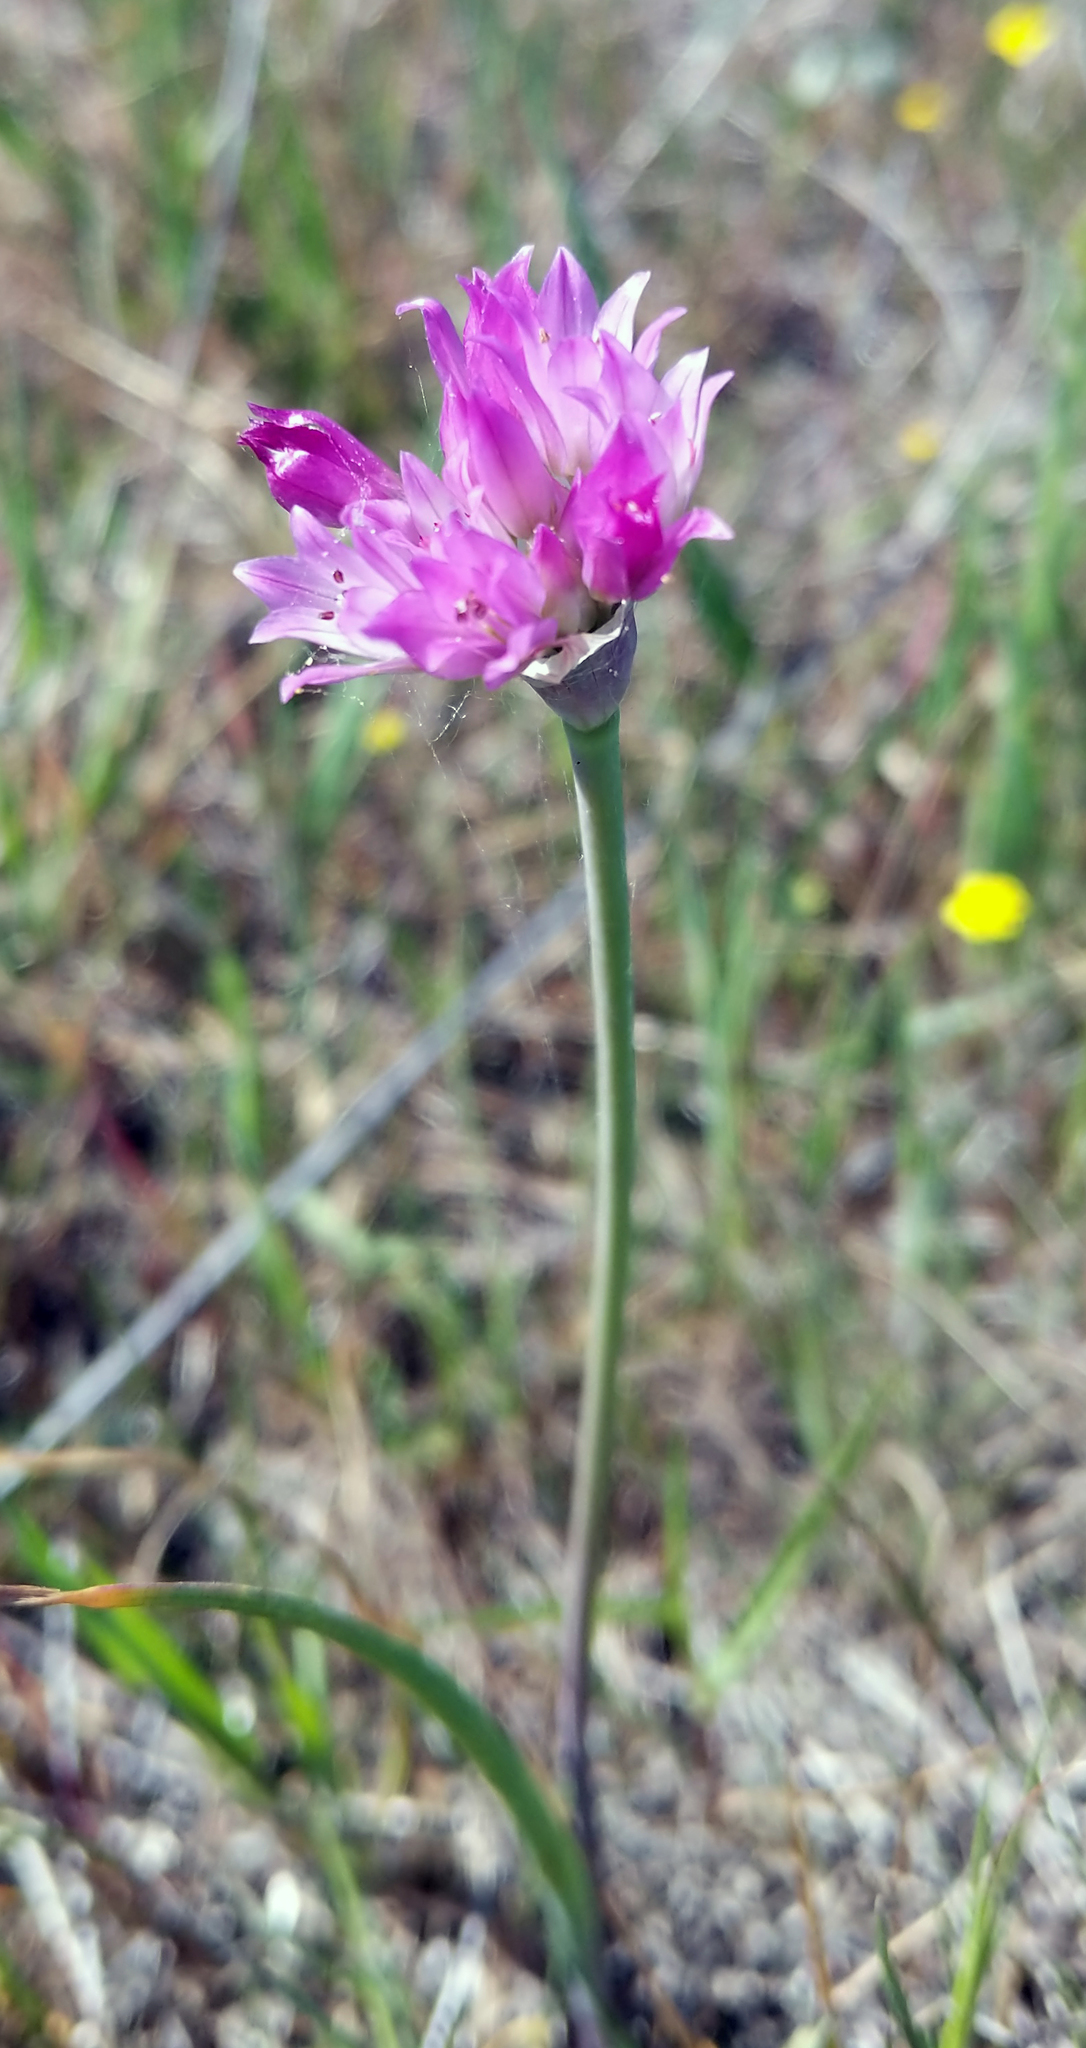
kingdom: Plantae
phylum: Tracheophyta
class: Liliopsida
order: Asparagales
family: Amaryllidaceae
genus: Allium
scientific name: Allium serra
